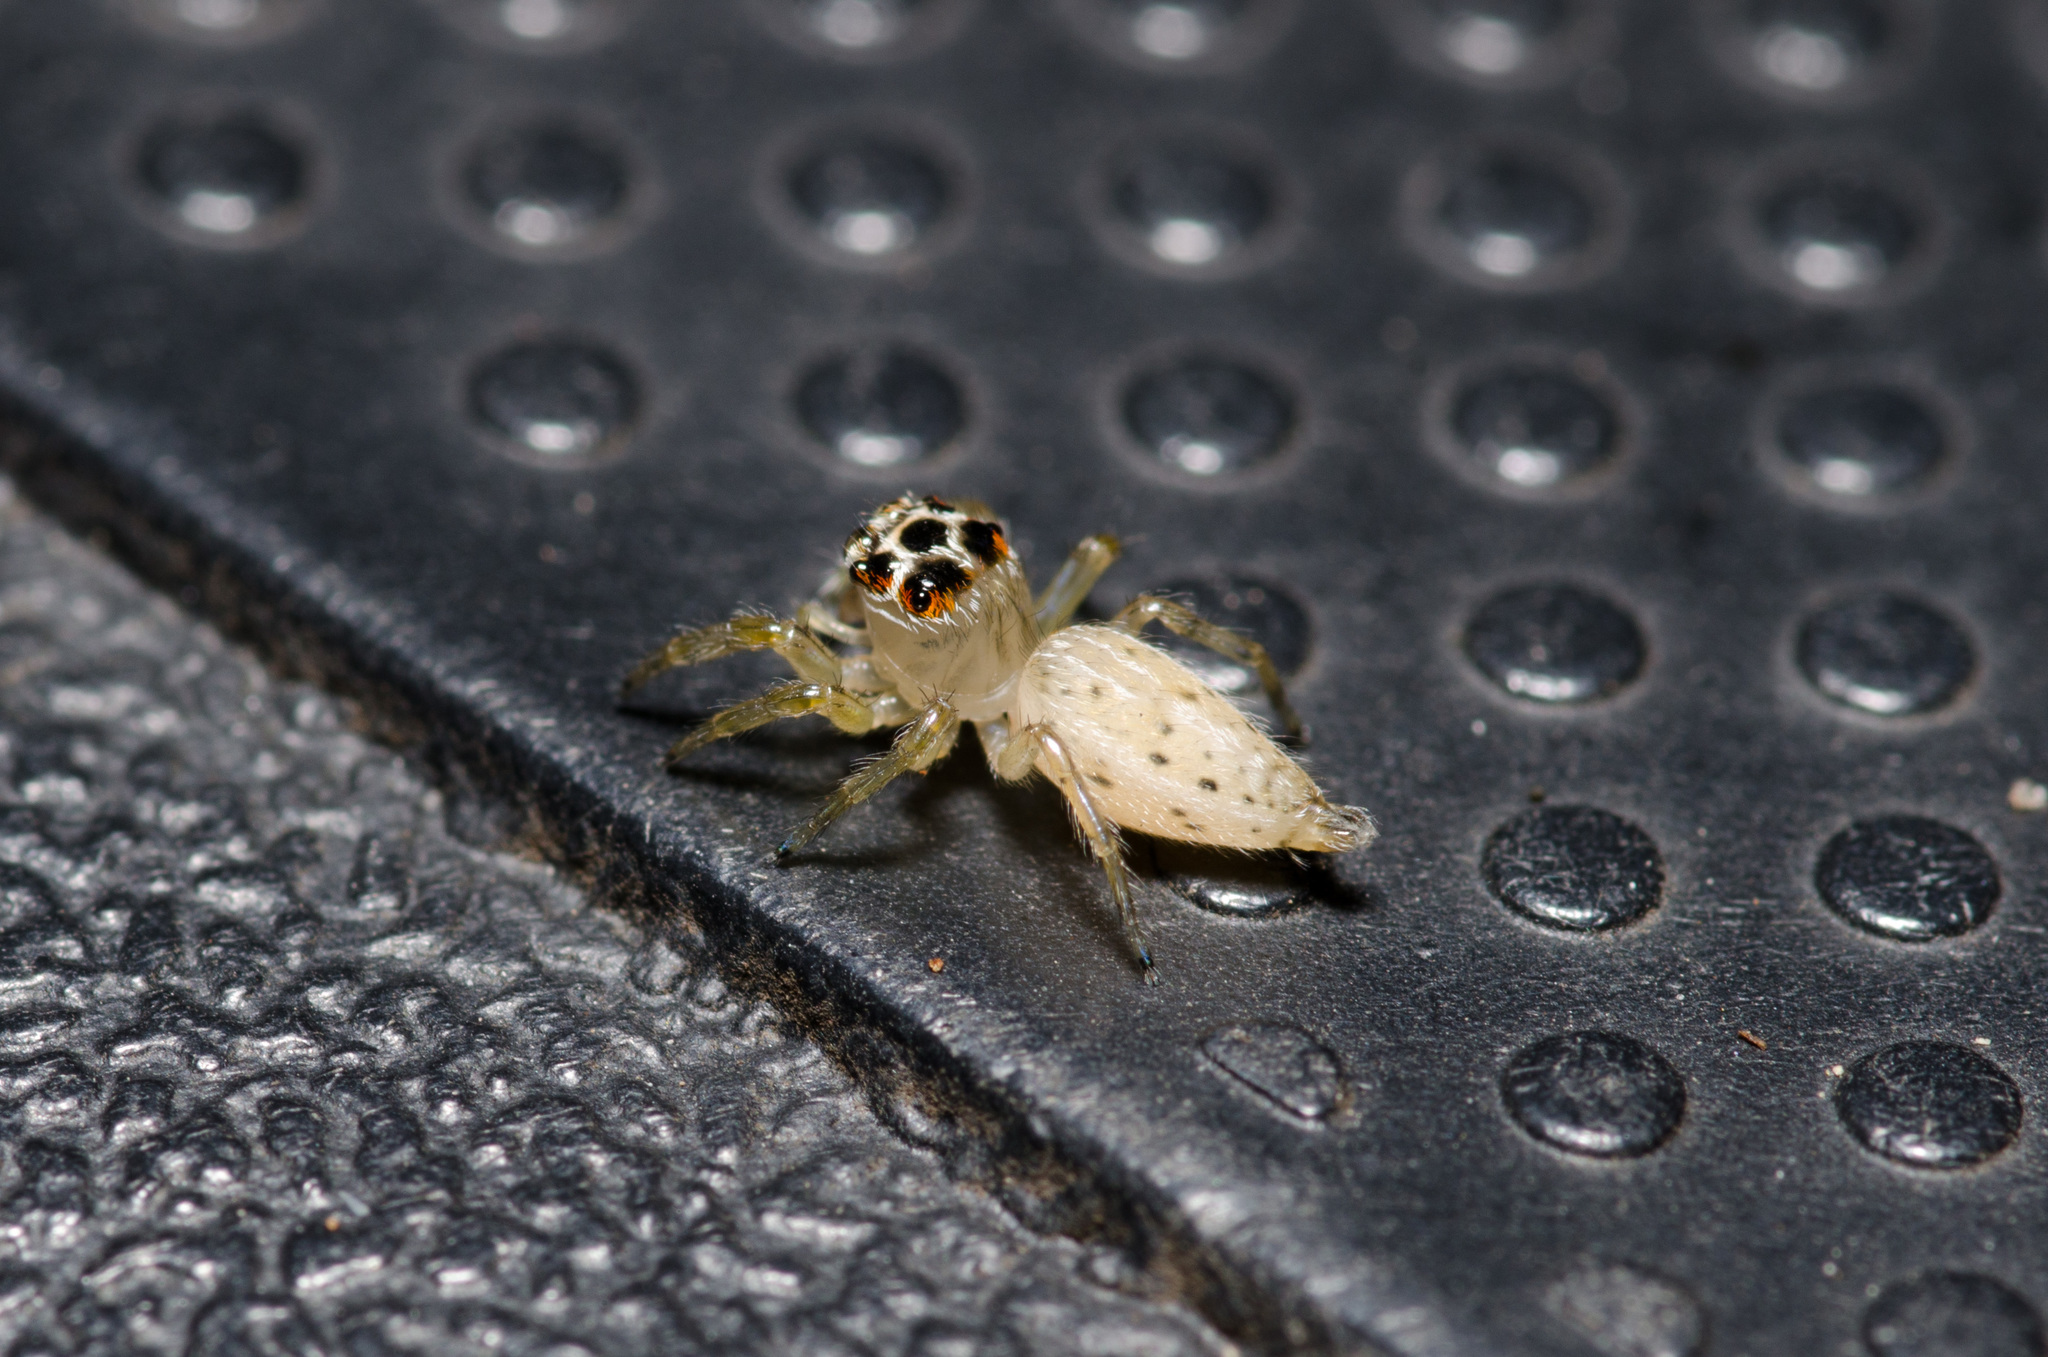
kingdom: Animalia
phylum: Arthropoda
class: Arachnida
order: Araneae
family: Salticidae
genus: Colonus
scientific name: Colonus sylvanus
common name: Jumping spiders
